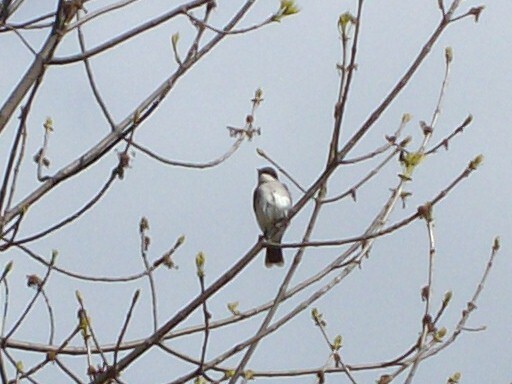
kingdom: Animalia
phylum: Chordata
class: Aves
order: Passeriformes
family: Tyrannidae
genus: Tyrannus
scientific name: Tyrannus tyrannus
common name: Eastern kingbird
